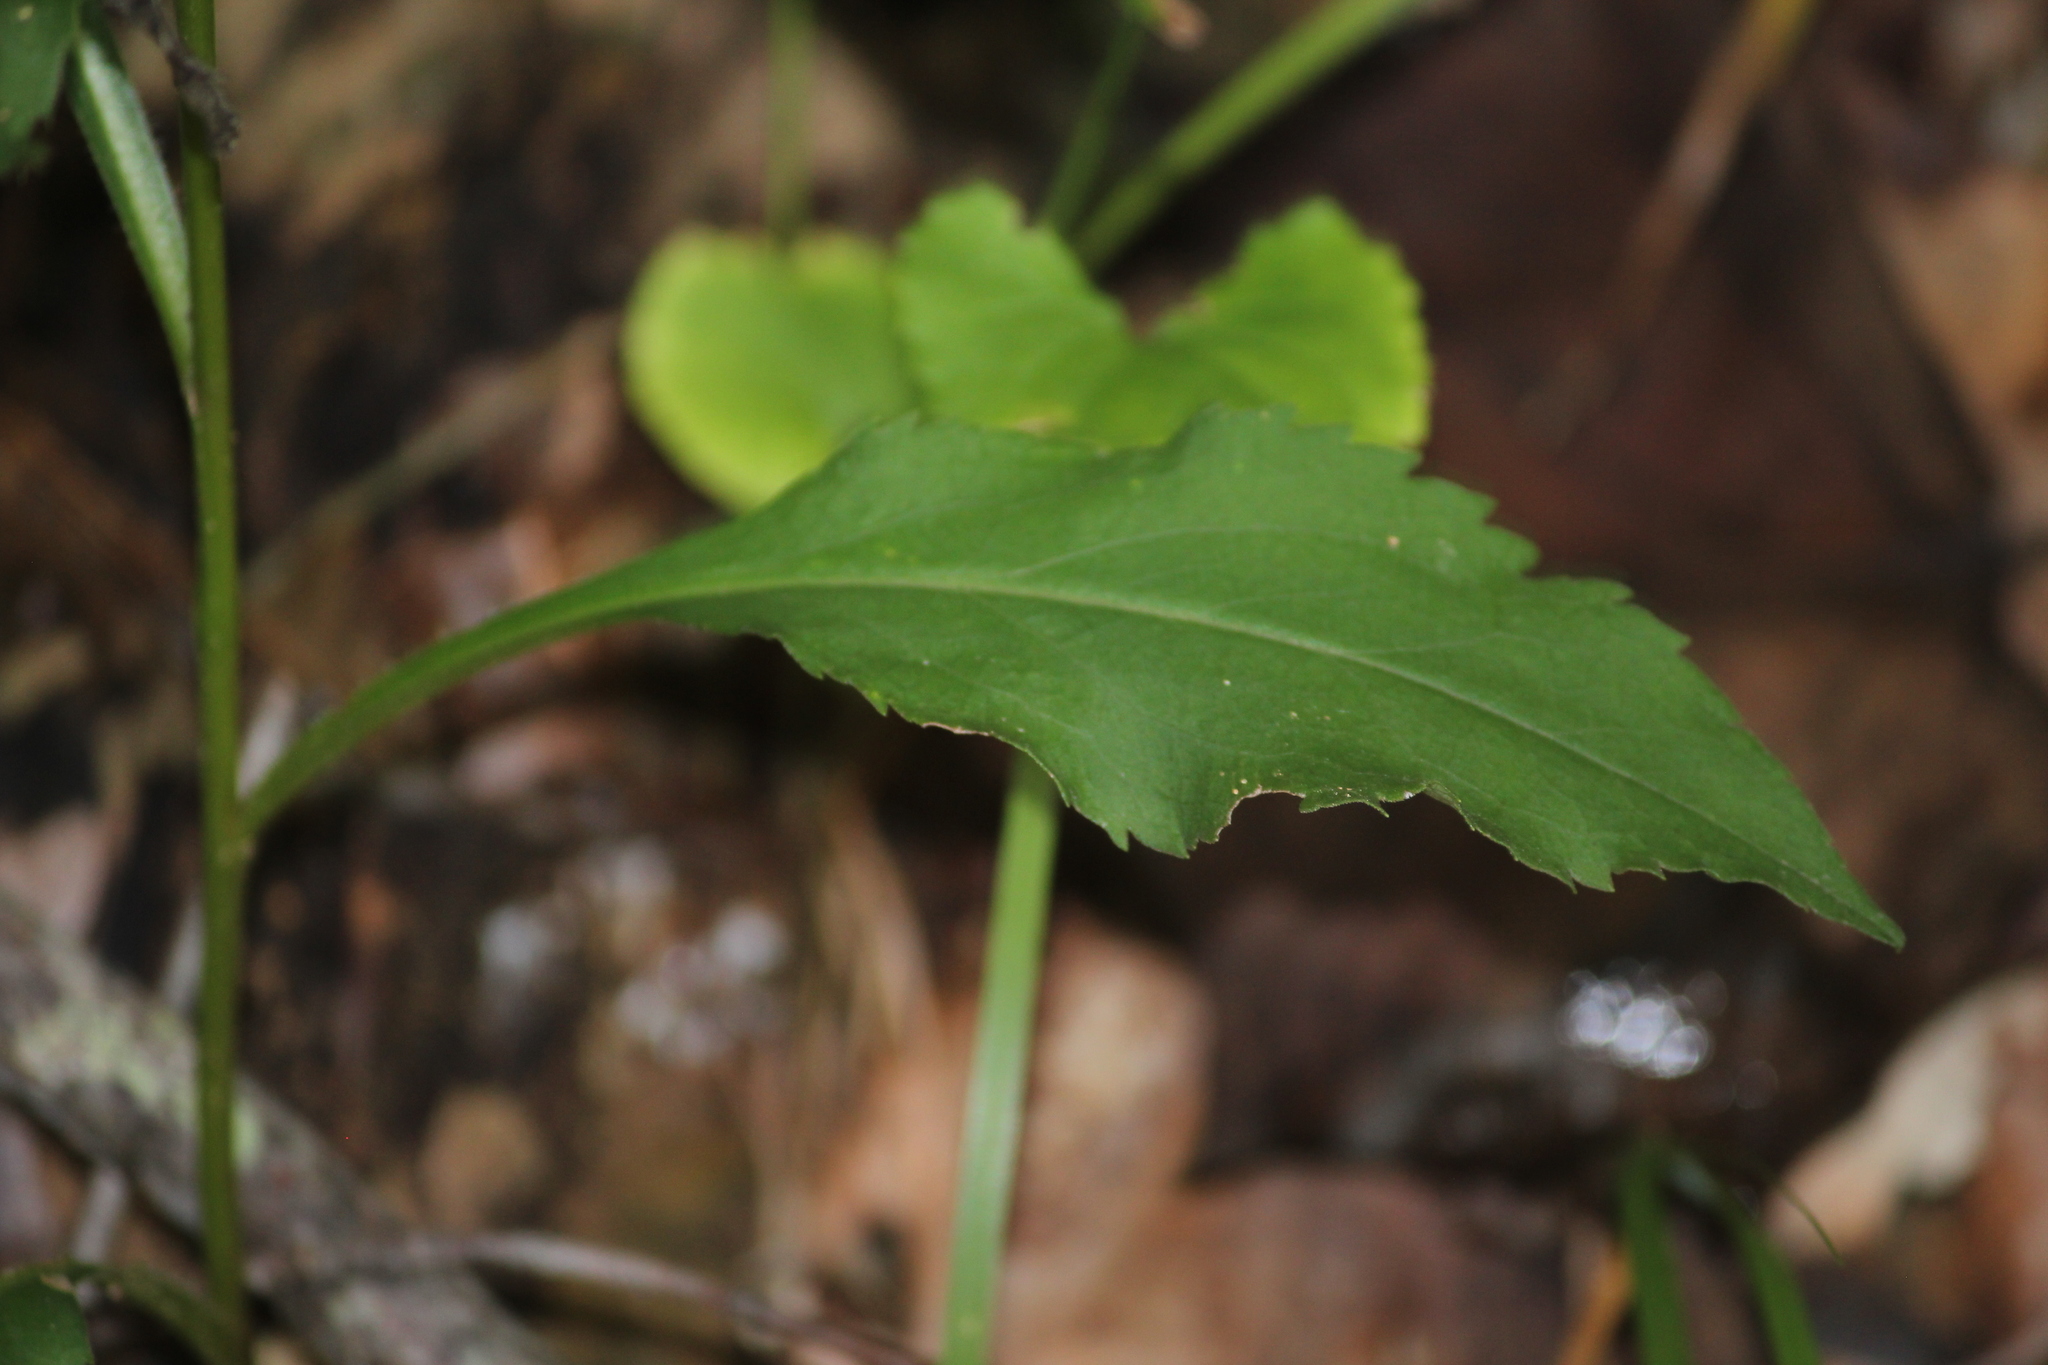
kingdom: Plantae
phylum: Tracheophyta
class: Magnoliopsida
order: Asterales
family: Asteraceae
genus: Solidago
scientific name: Solidago vaseyi
